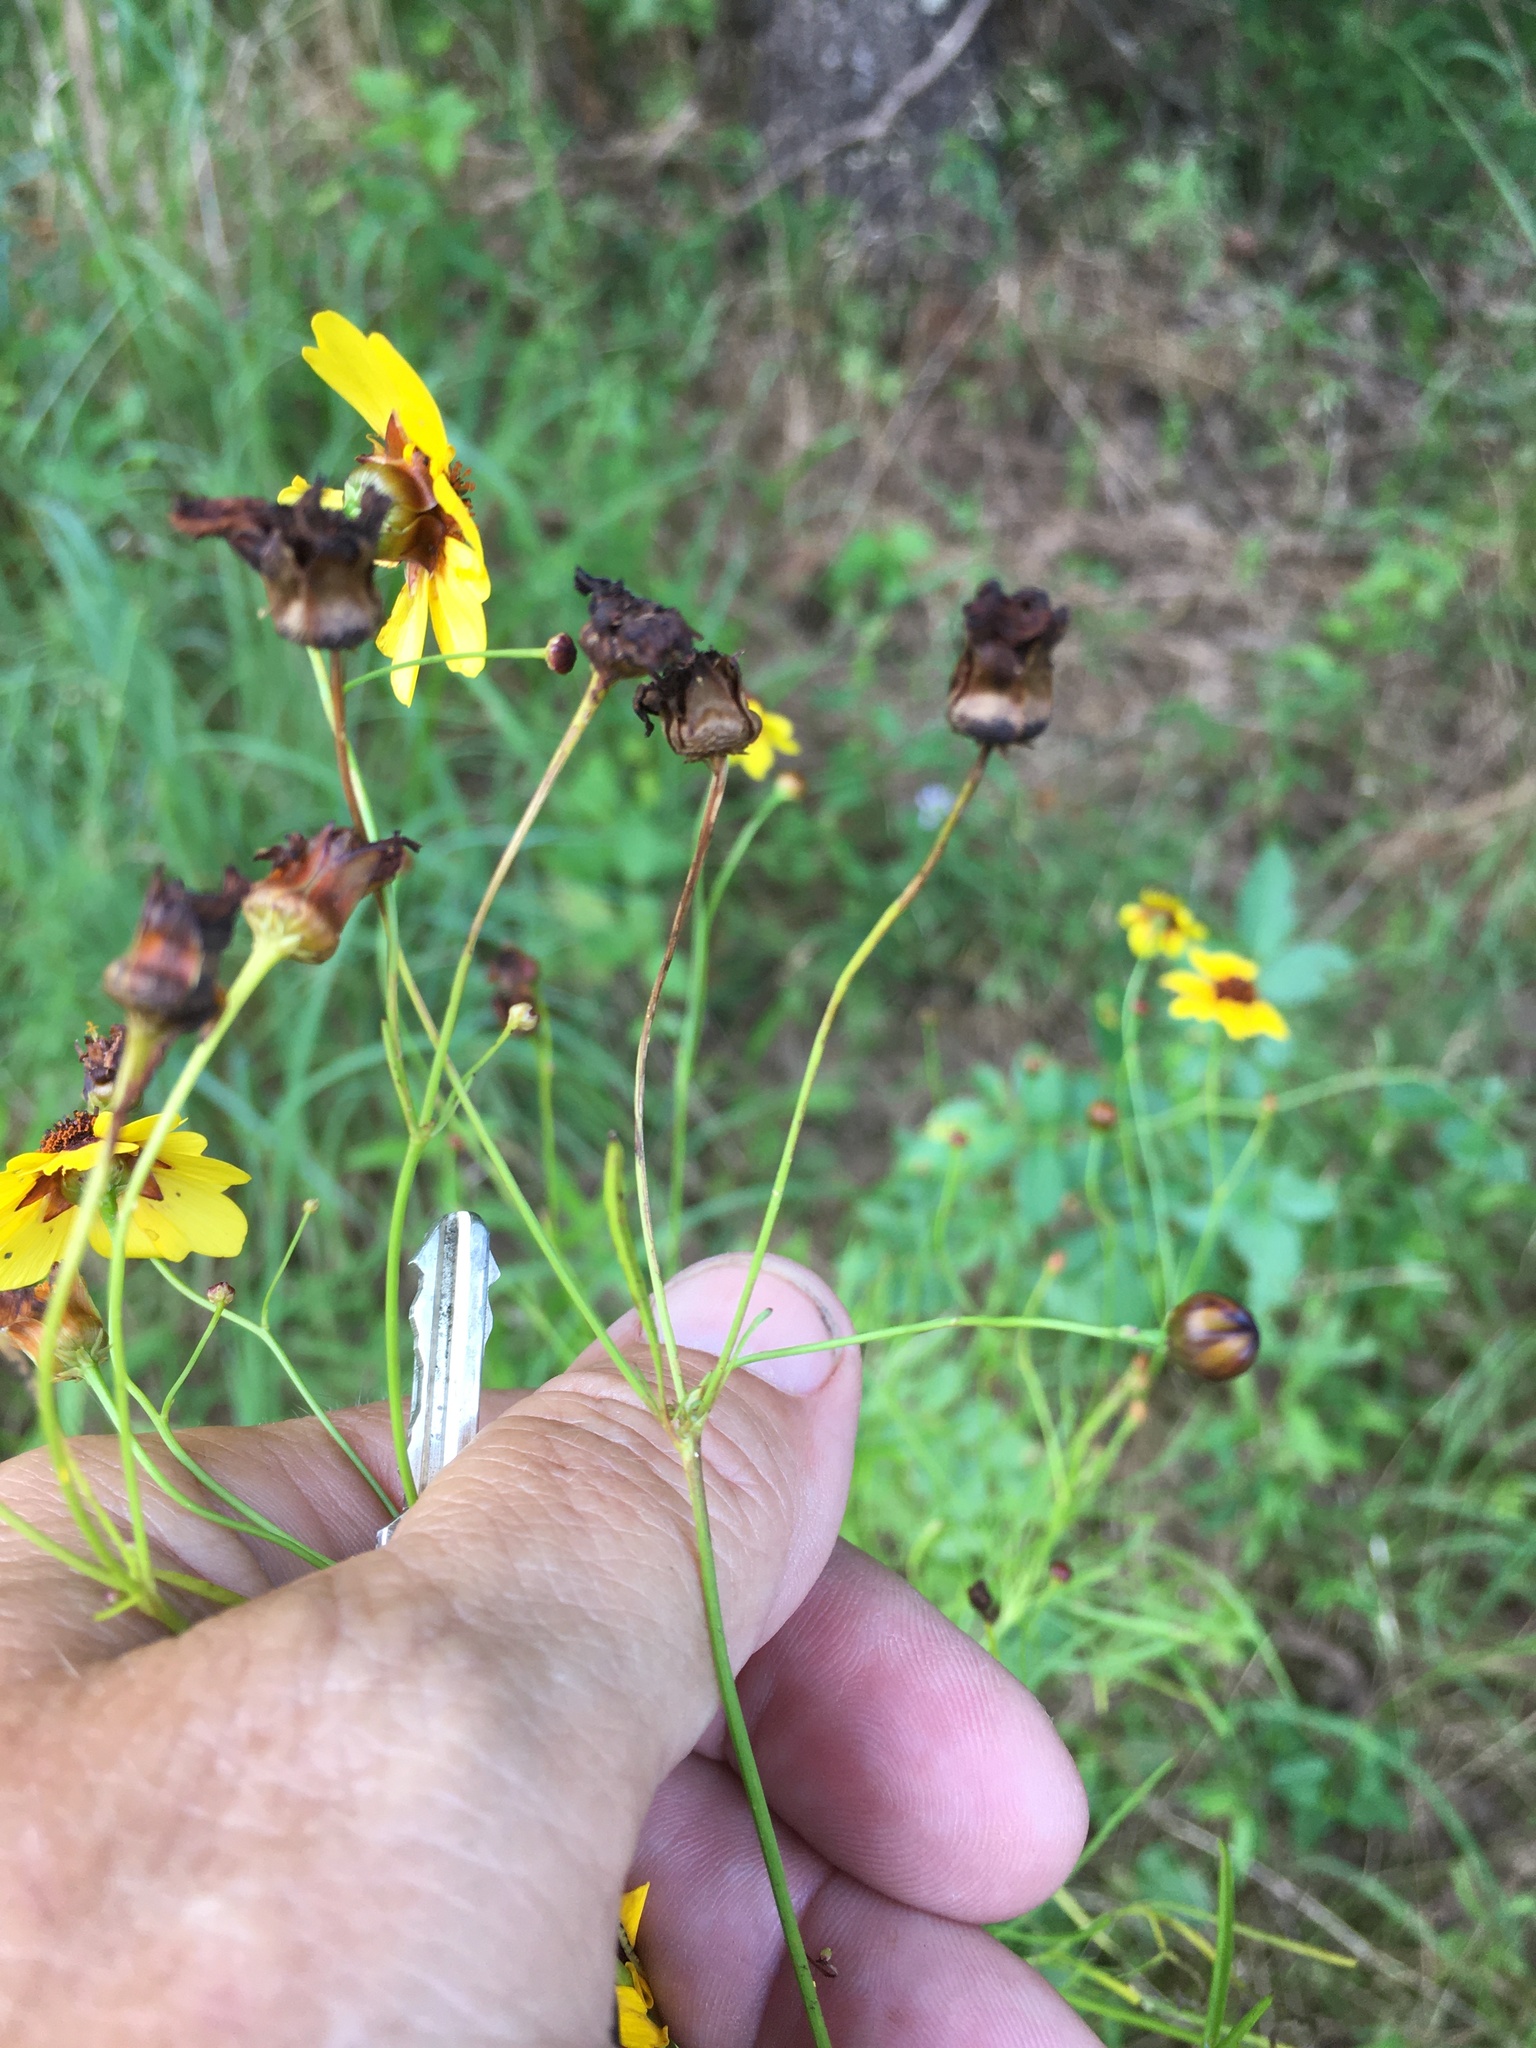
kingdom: Plantae
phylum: Tracheophyta
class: Magnoliopsida
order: Asterales
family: Asteraceae
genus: Coreopsis
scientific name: Coreopsis tinctoria
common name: Garden tickseed
